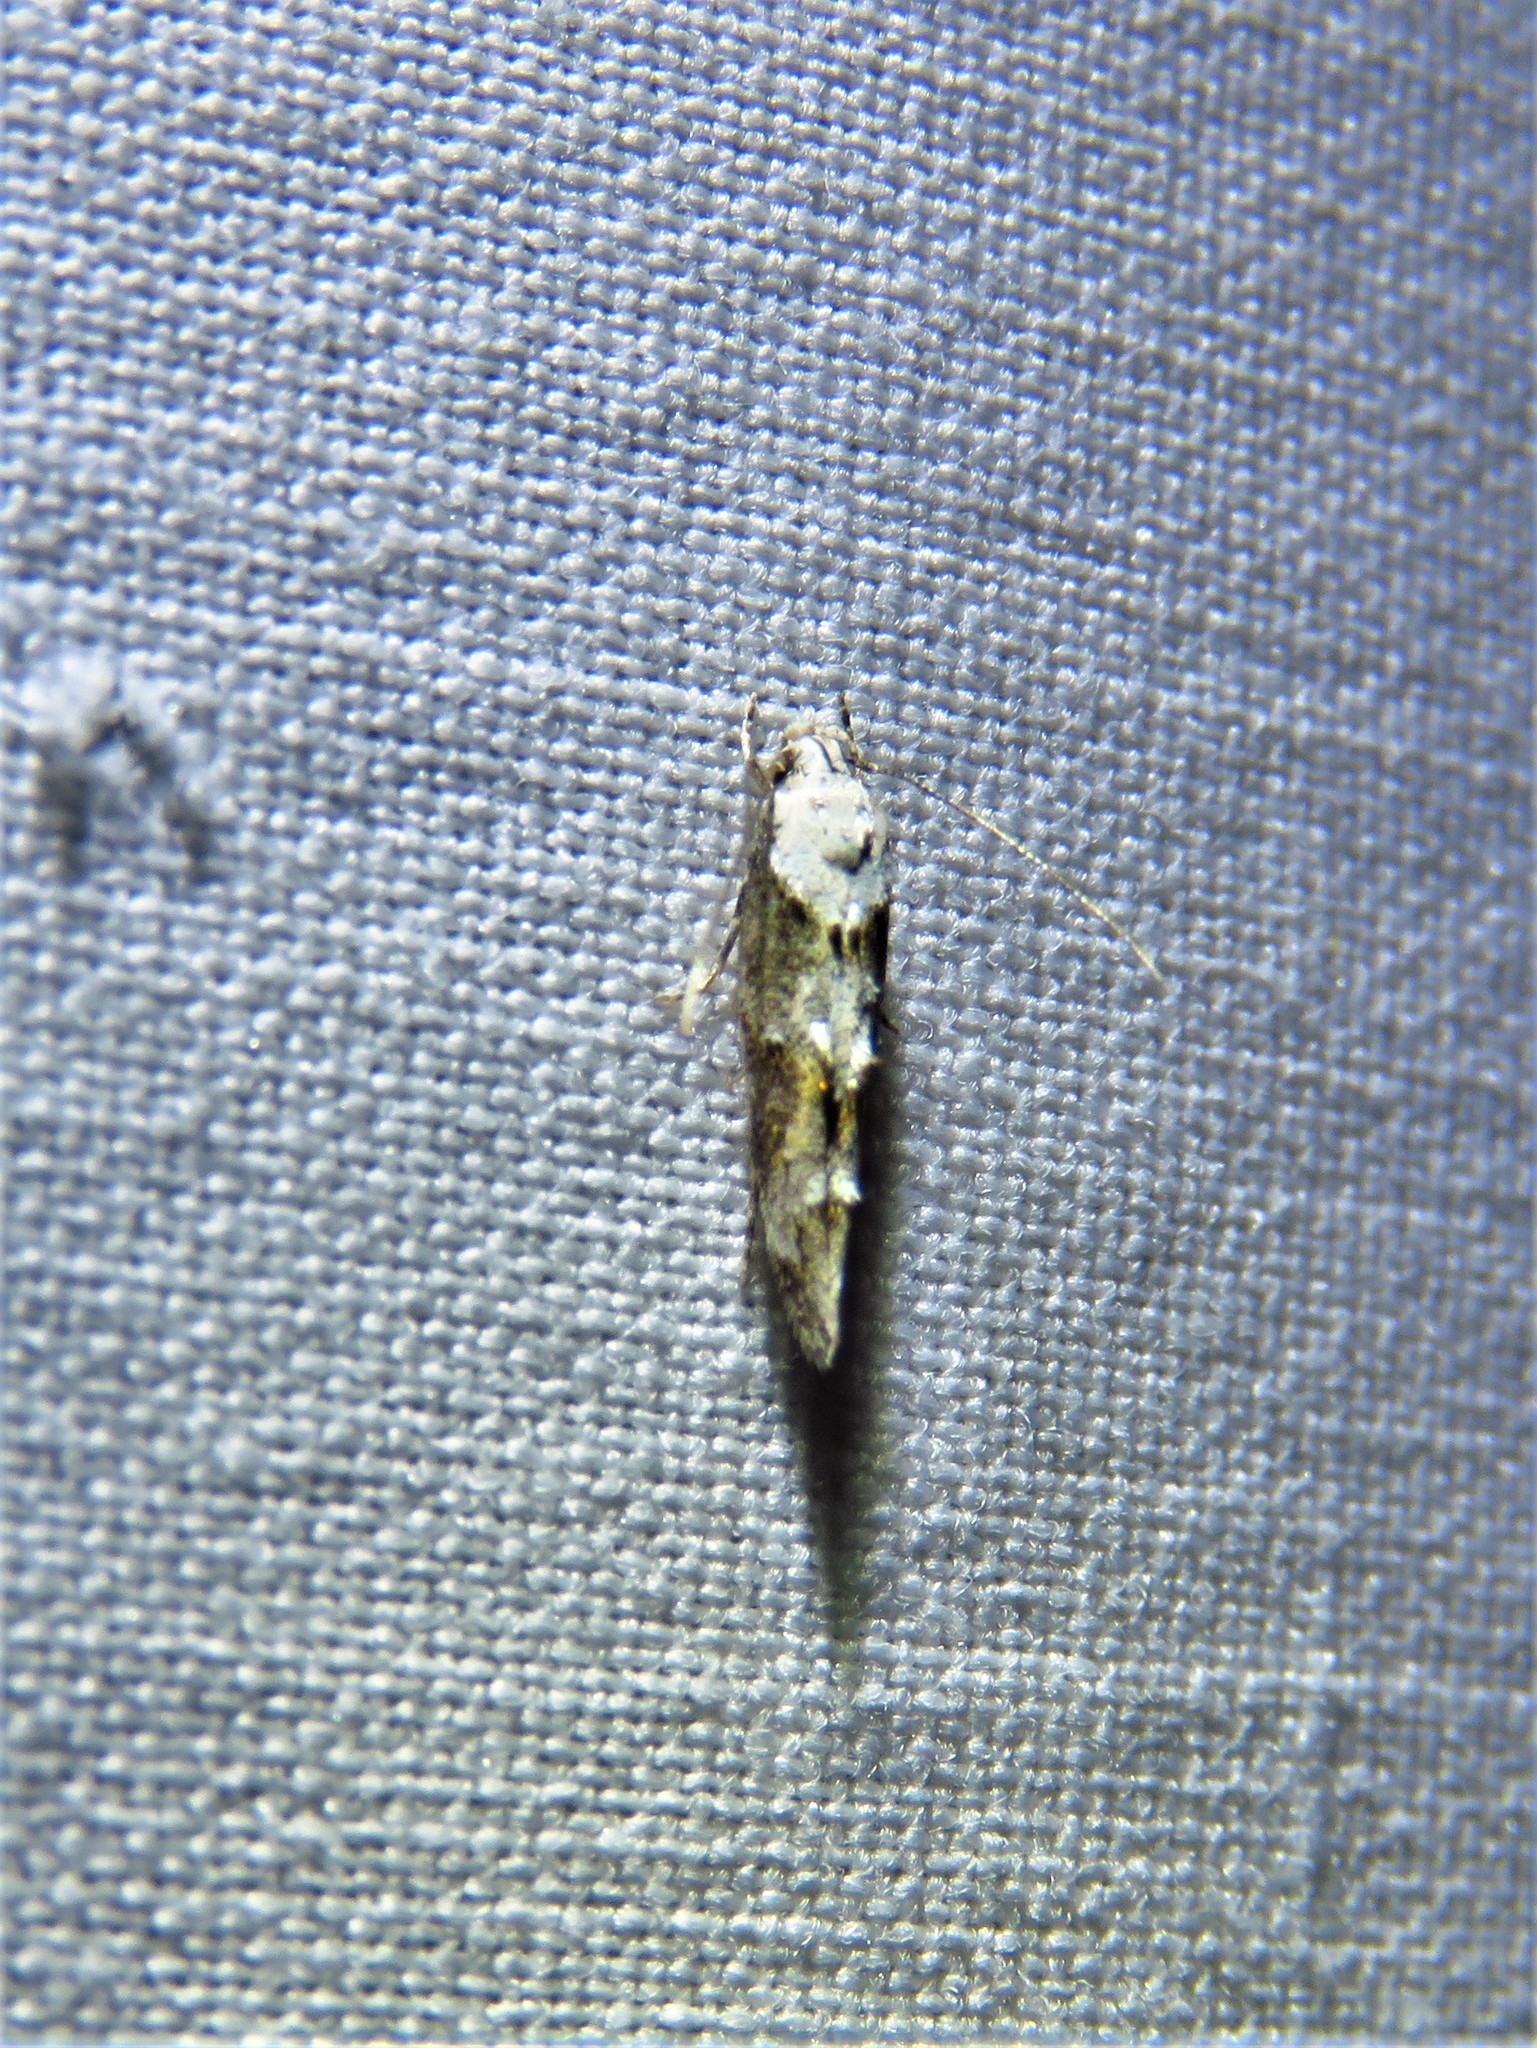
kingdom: Animalia
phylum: Arthropoda
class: Insecta
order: Lepidoptera
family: Momphidae
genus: Mompha
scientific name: Mompha albocapitella
